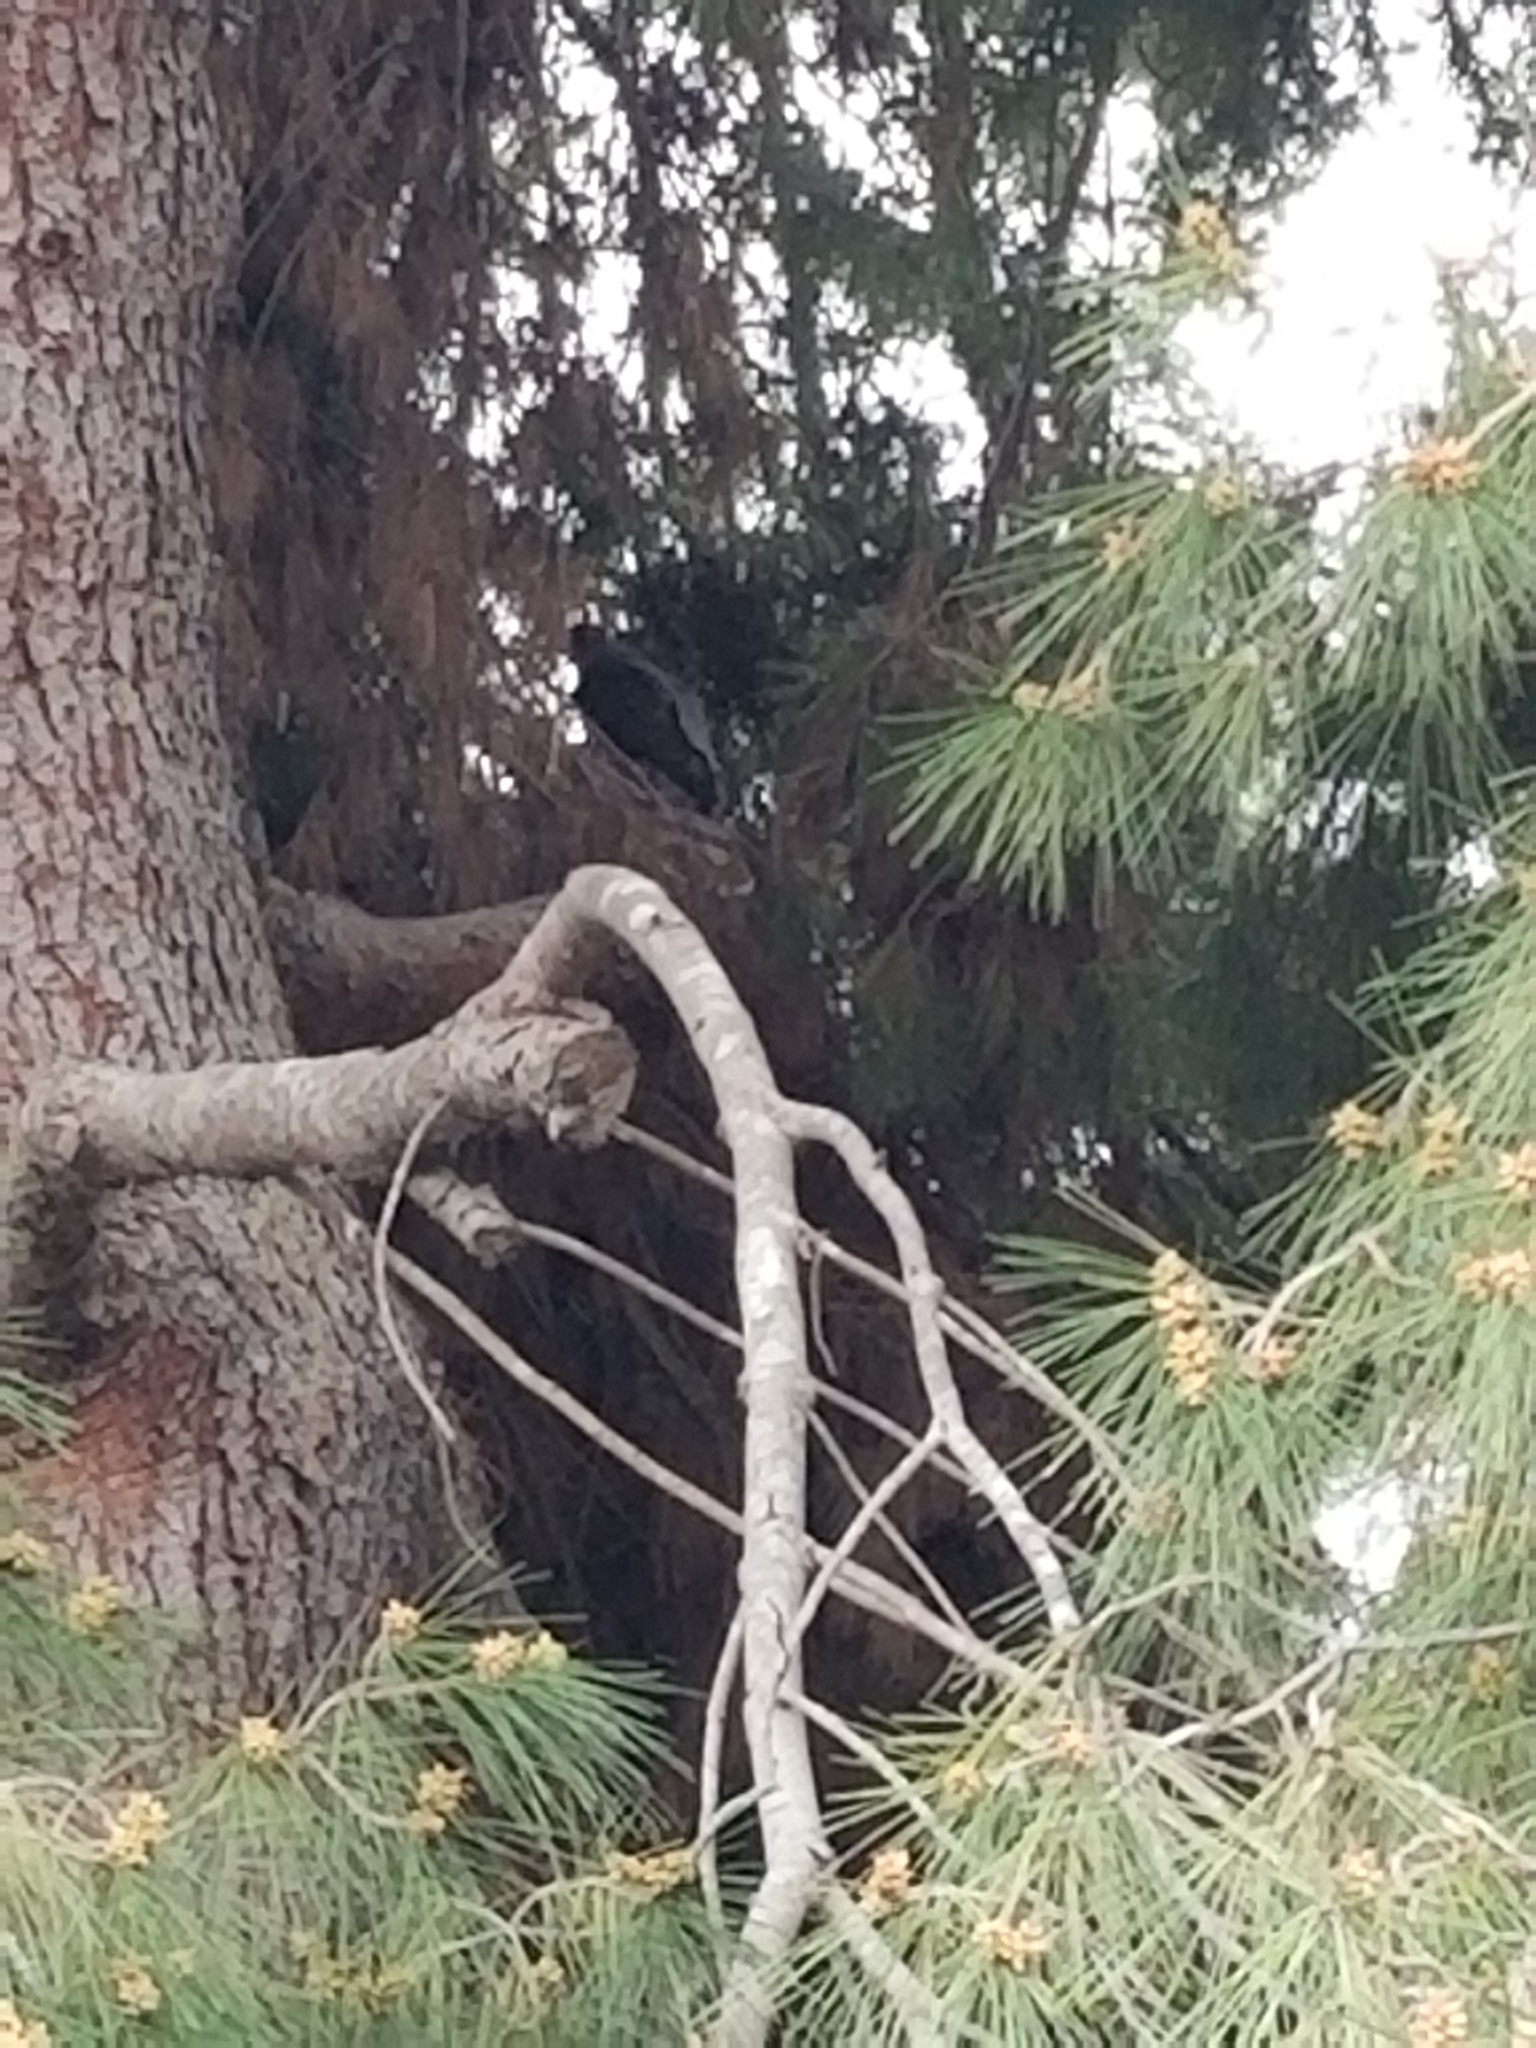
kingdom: Animalia
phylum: Chordata
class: Aves
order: Accipitriformes
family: Accipitridae
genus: Accipiter
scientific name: Accipiter cooperii
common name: Cooper's hawk
